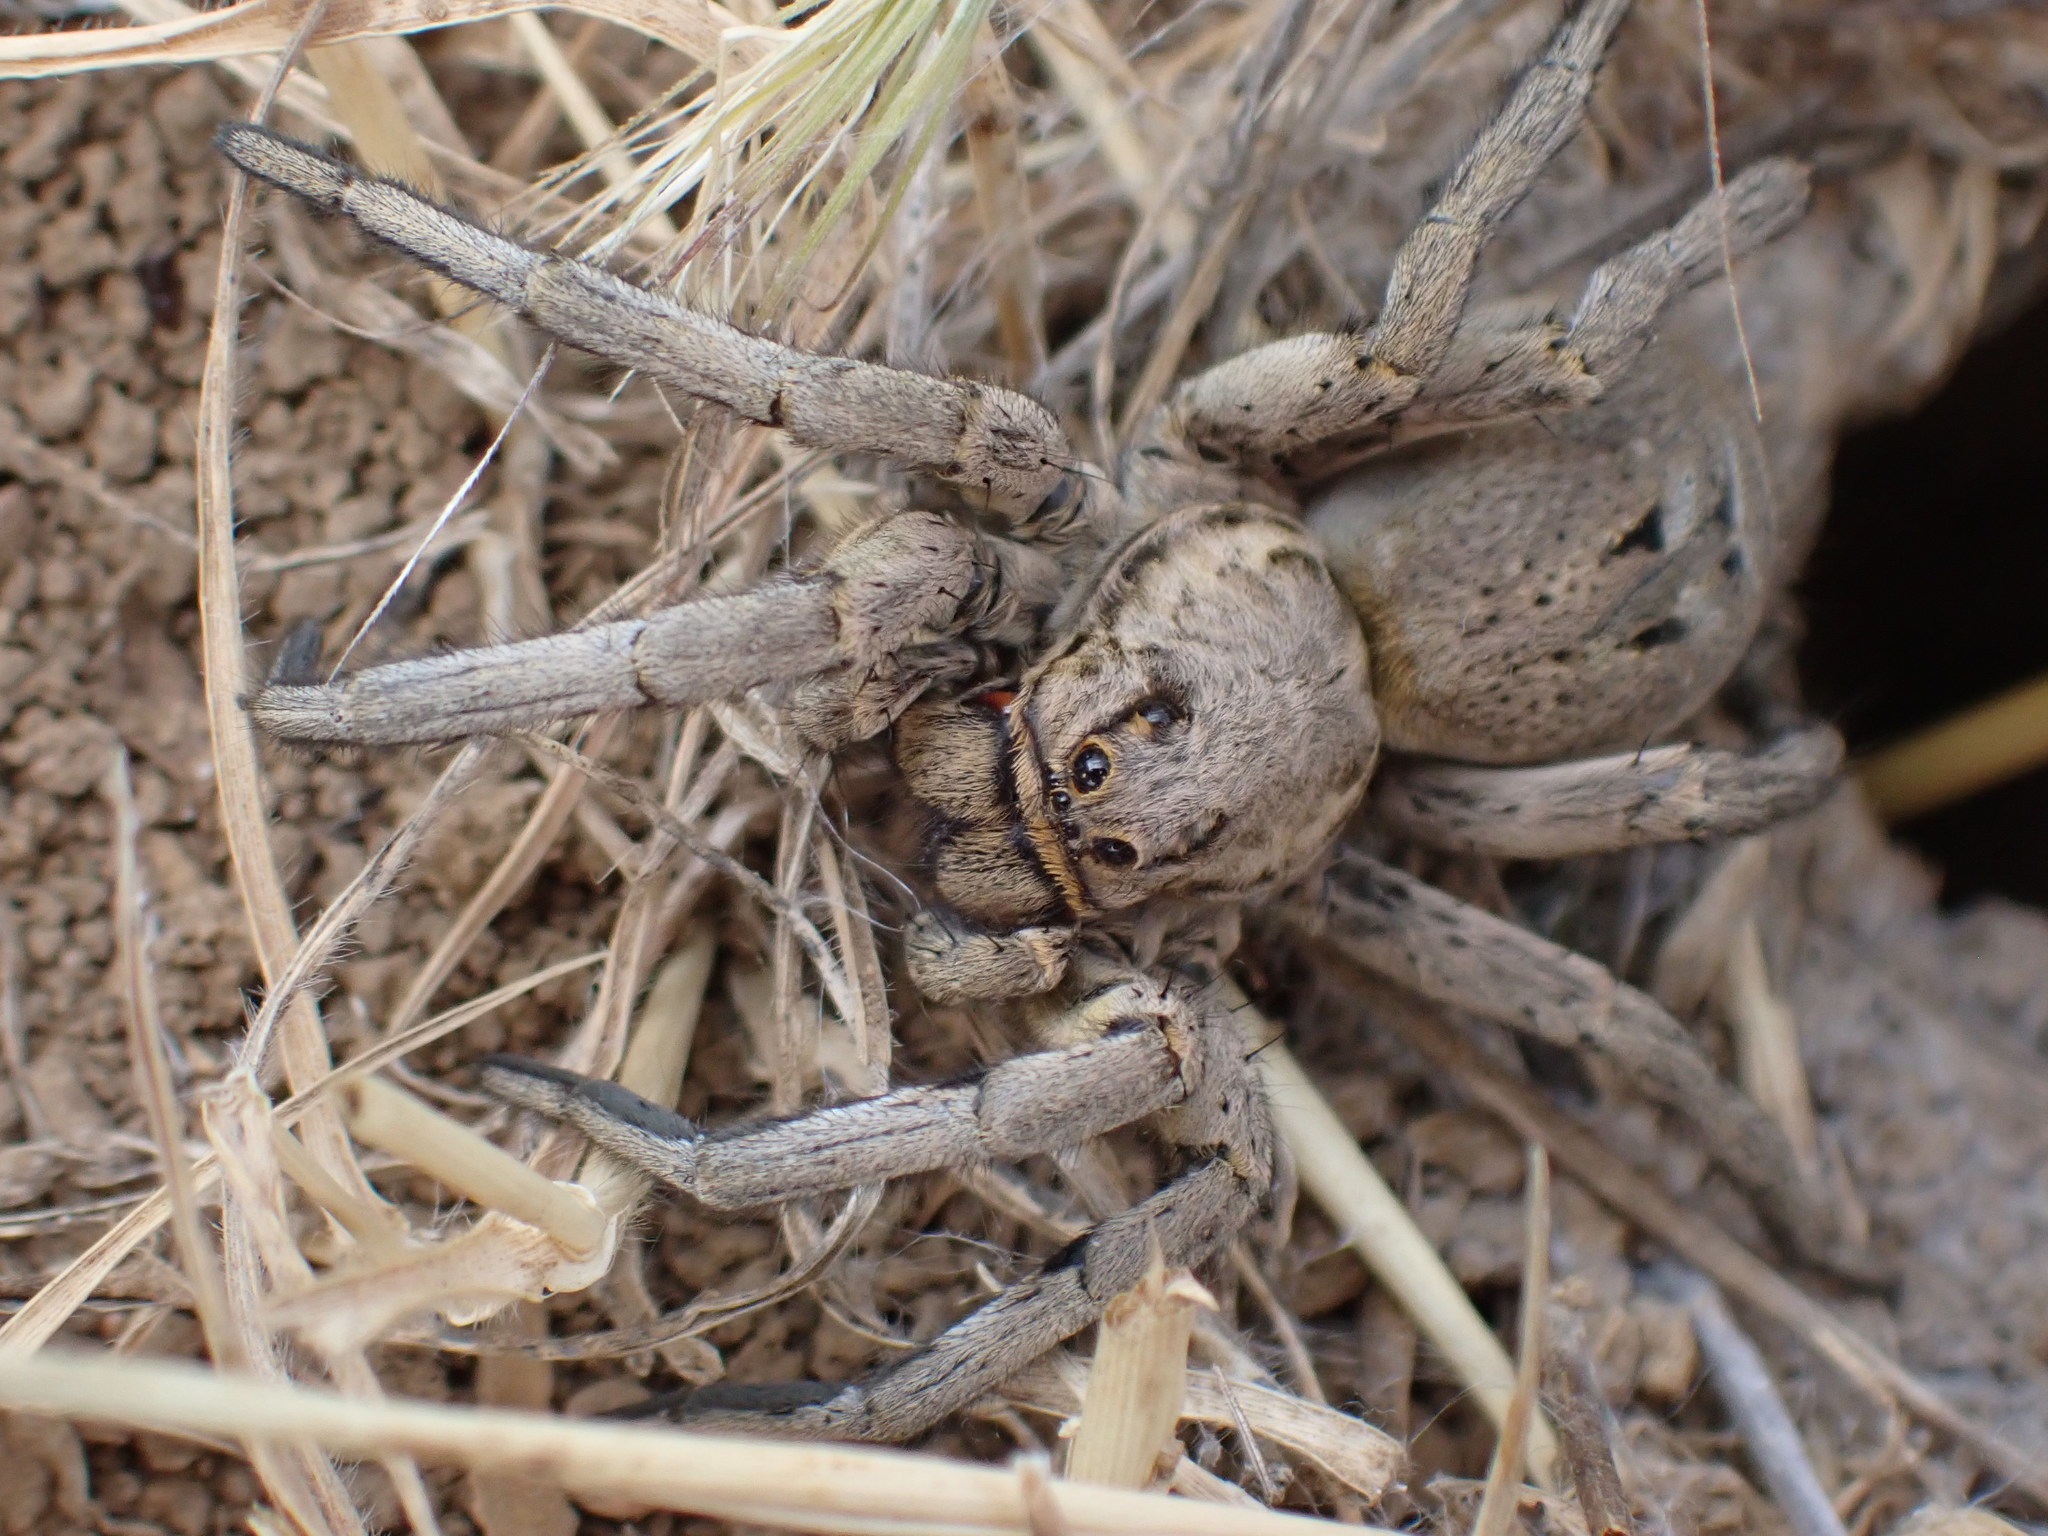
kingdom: Animalia
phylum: Arthropoda
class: Arachnida
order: Araneae
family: Lycosidae
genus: Lycosa
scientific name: Lycosa tarantula
